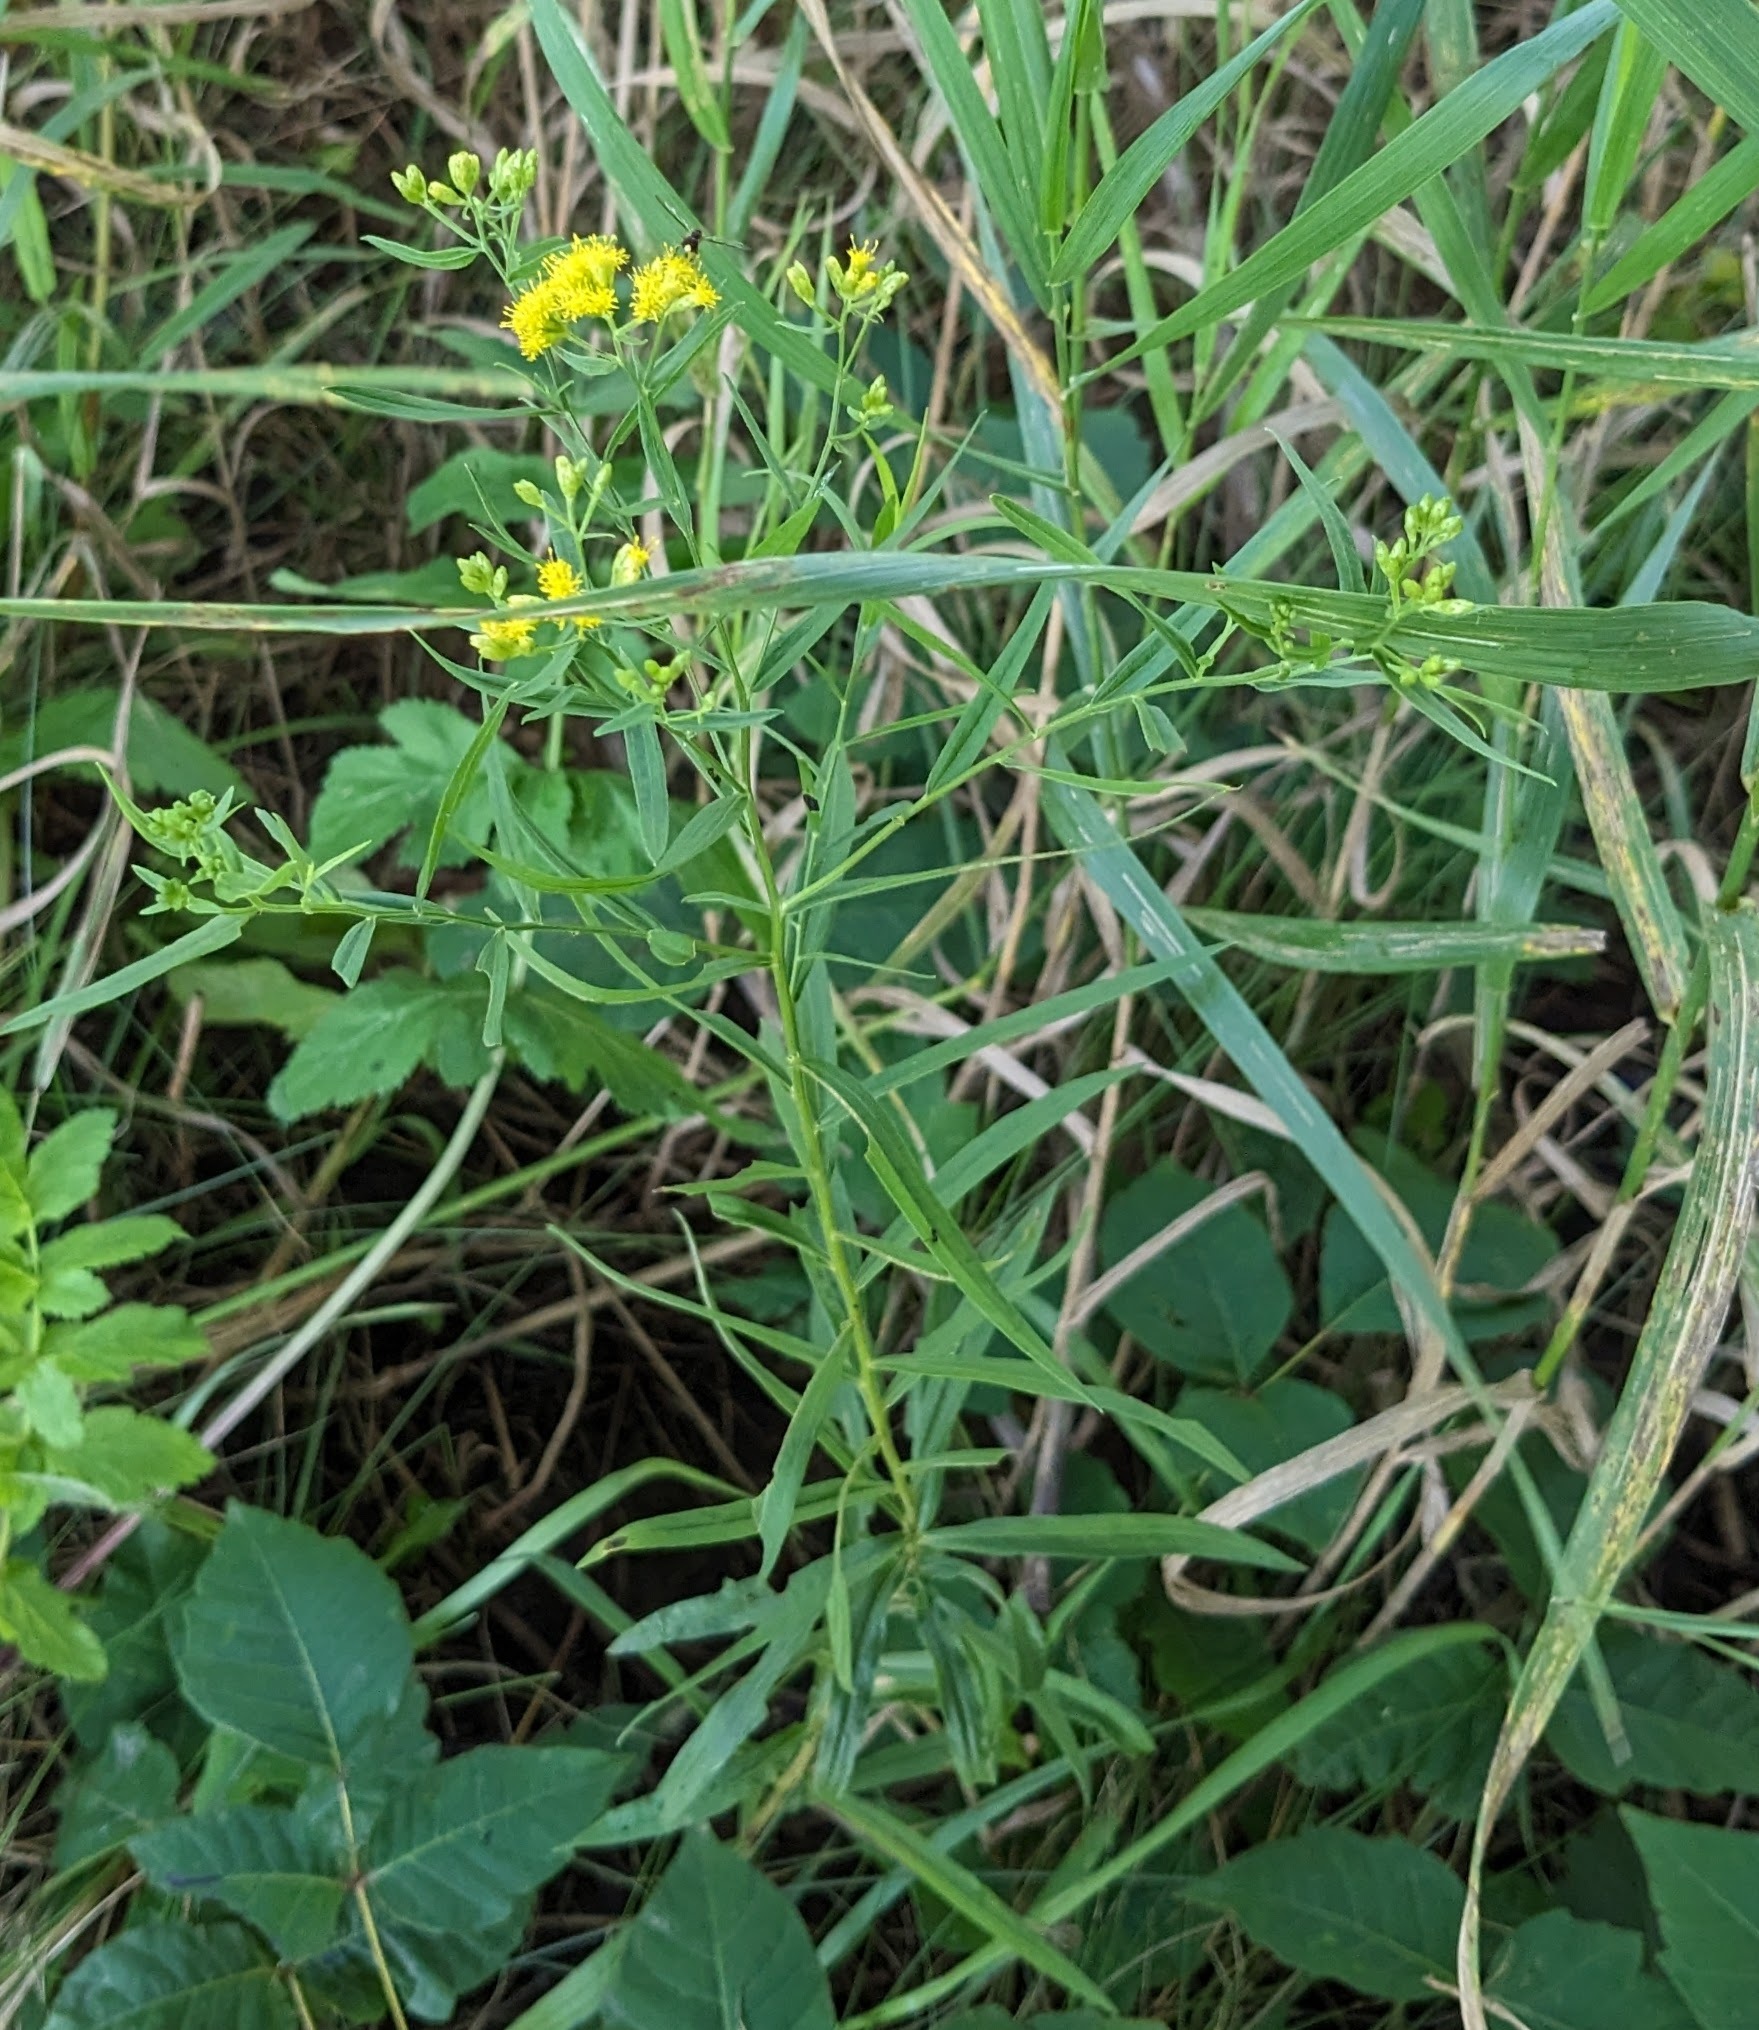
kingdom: Plantae
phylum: Tracheophyta
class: Magnoliopsida
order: Asterales
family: Asteraceae
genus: Euthamia
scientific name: Euthamia graminifolia
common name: Common goldentop
